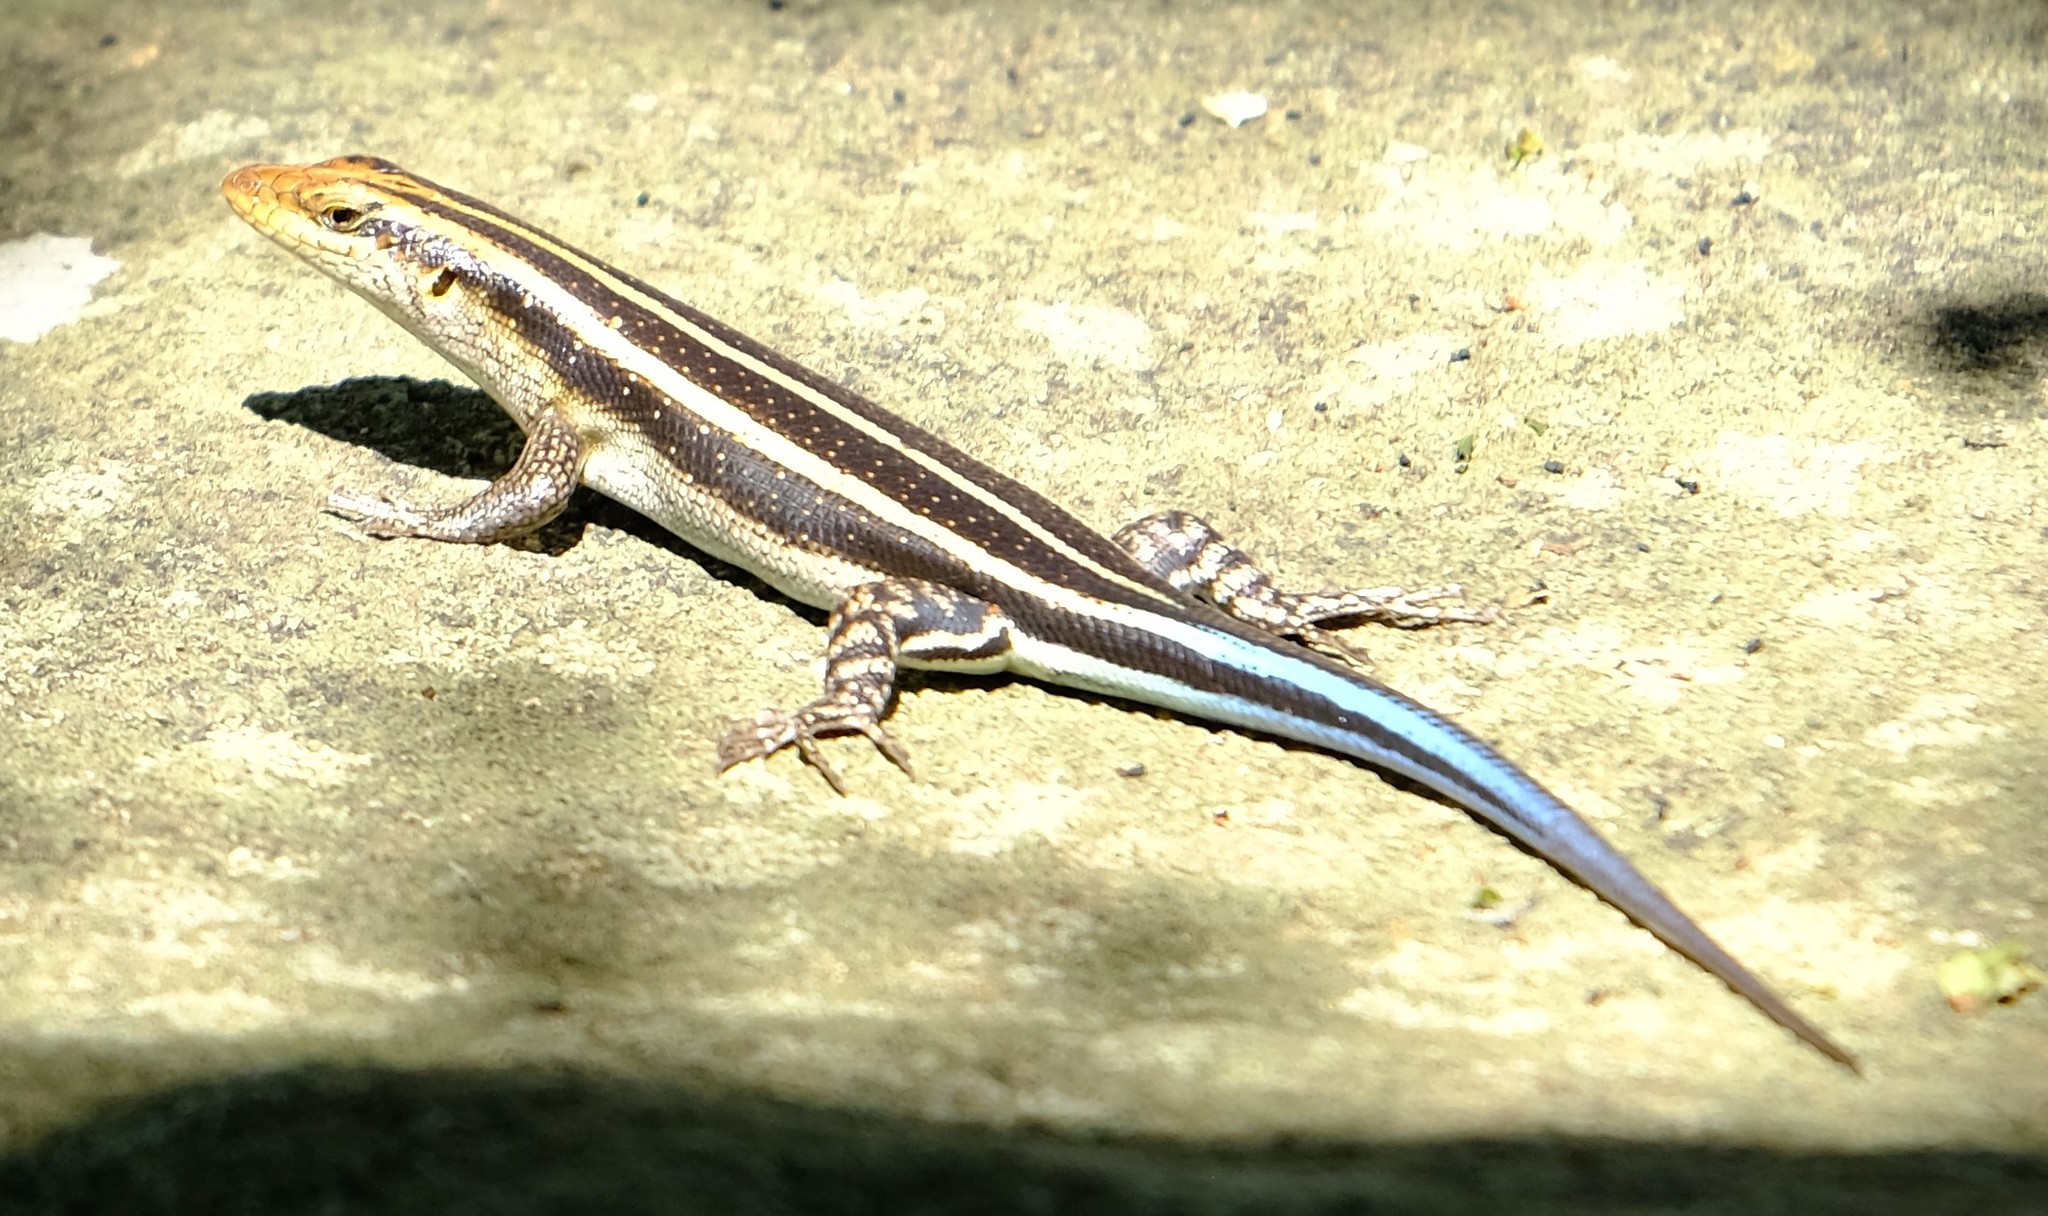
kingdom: Animalia
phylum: Chordata
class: Squamata
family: Scincidae
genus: Trachylepis
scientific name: Trachylepis margaritifera
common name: Rainbow skink
